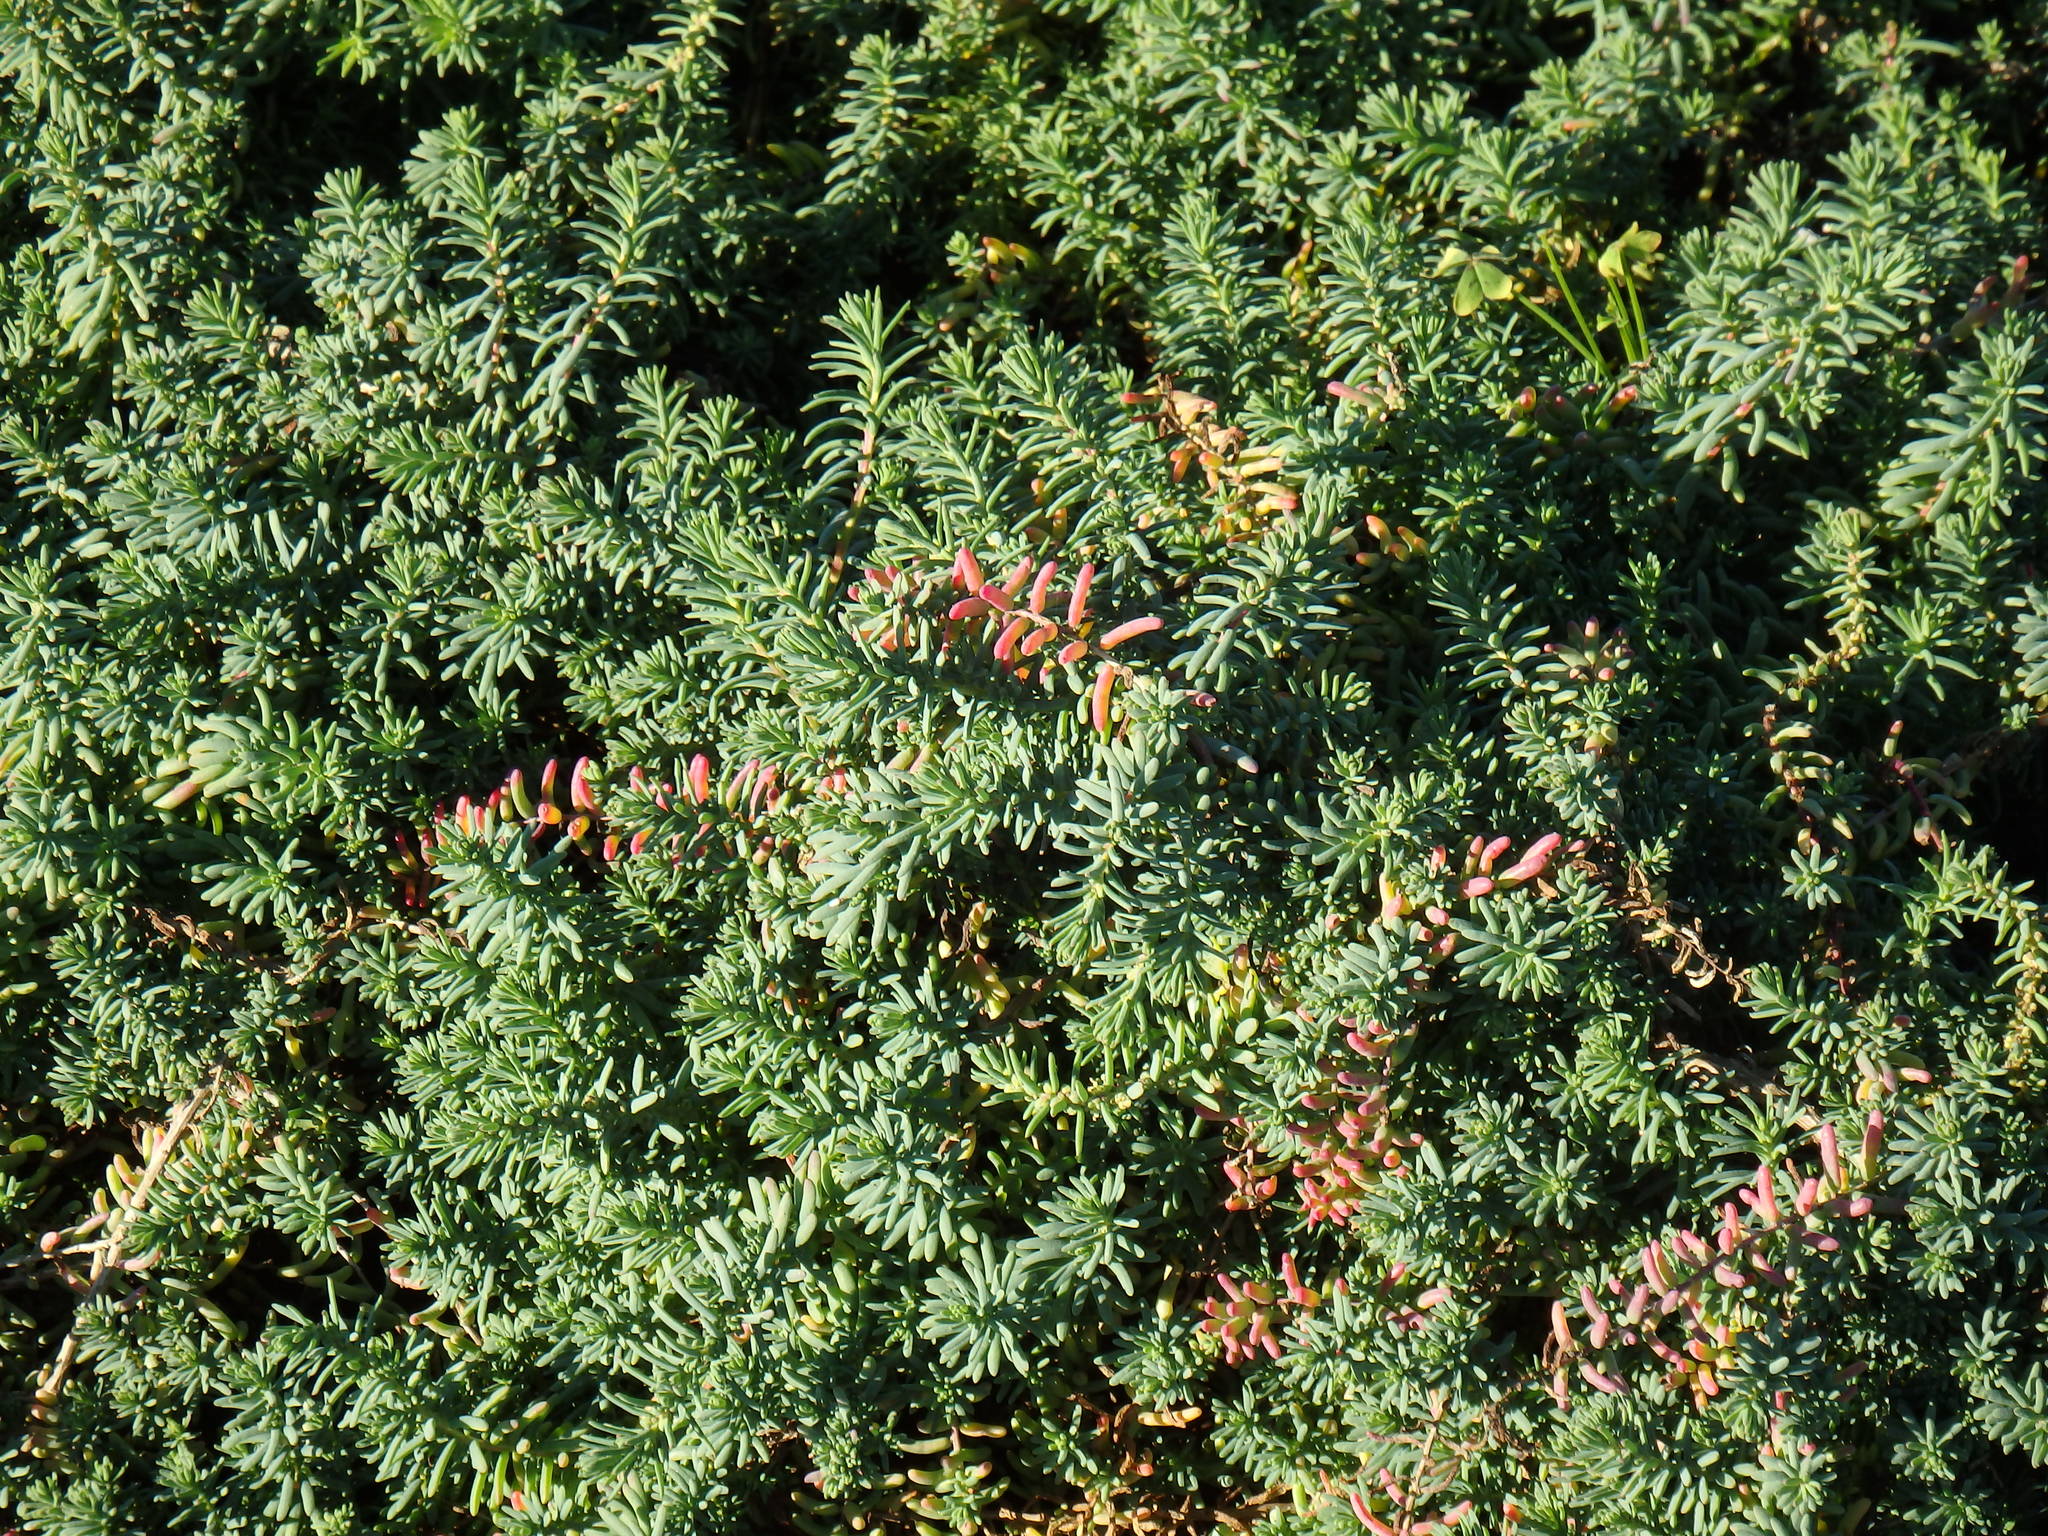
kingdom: Plantae
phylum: Tracheophyta
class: Magnoliopsida
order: Caryophyllales
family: Amaranthaceae
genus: Suaeda
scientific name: Suaeda vera
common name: Shrubby sea-blite
